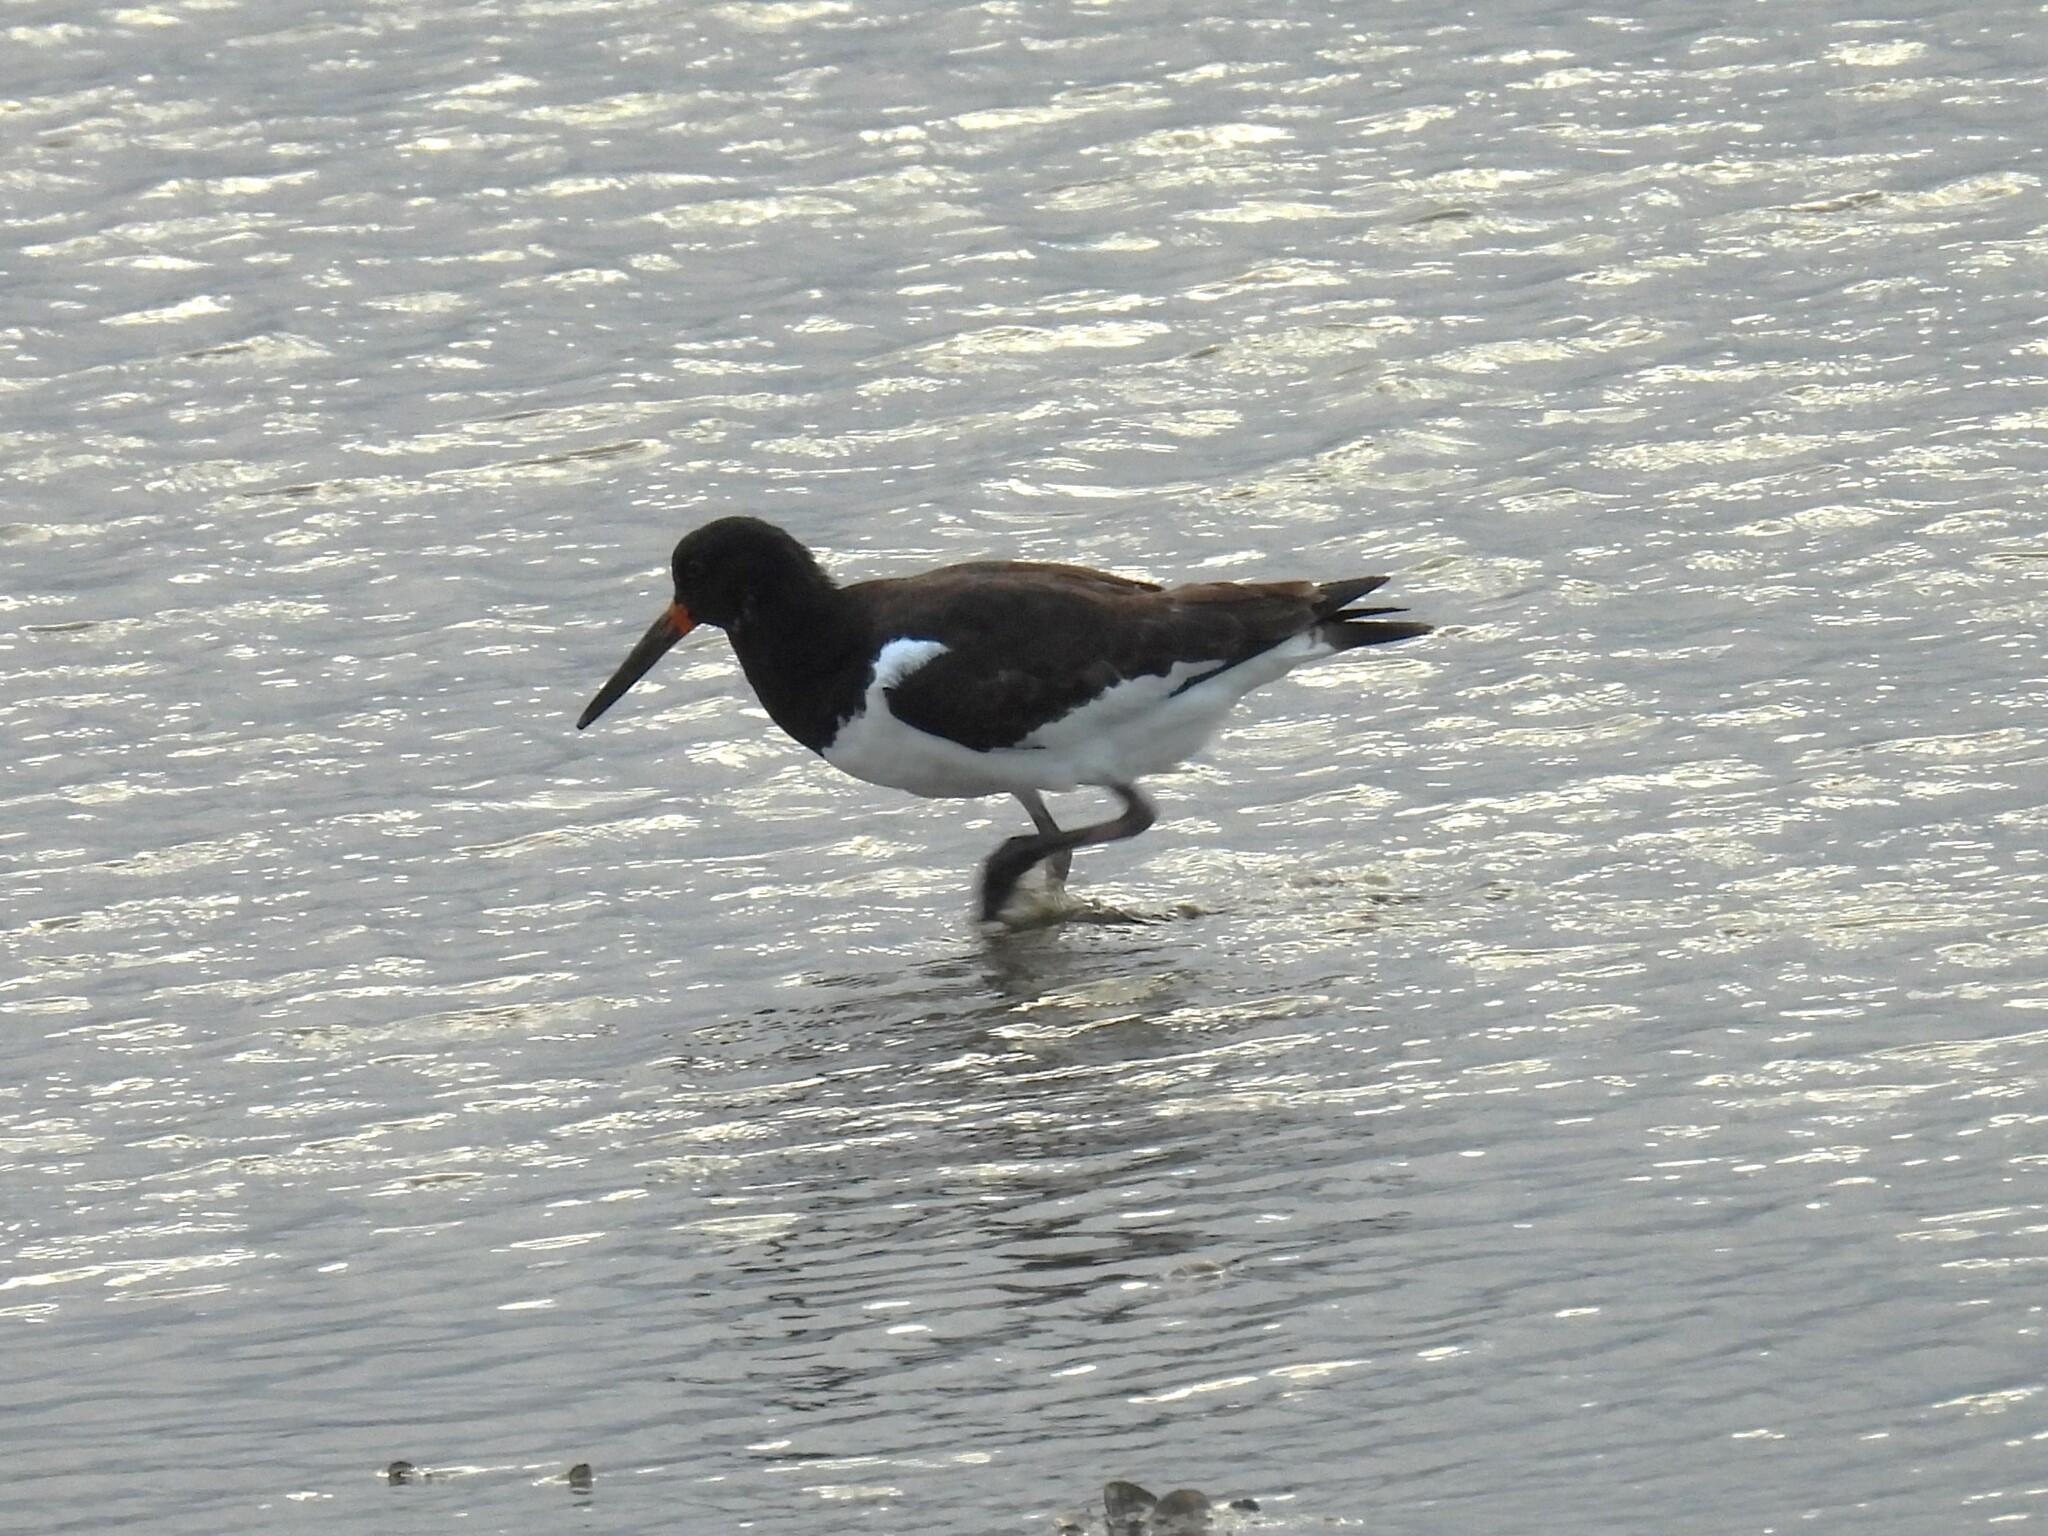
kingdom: Animalia
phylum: Chordata
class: Aves
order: Charadriiformes
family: Haematopodidae
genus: Haematopus
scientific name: Haematopus ostralegus
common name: Eurasian oystercatcher
